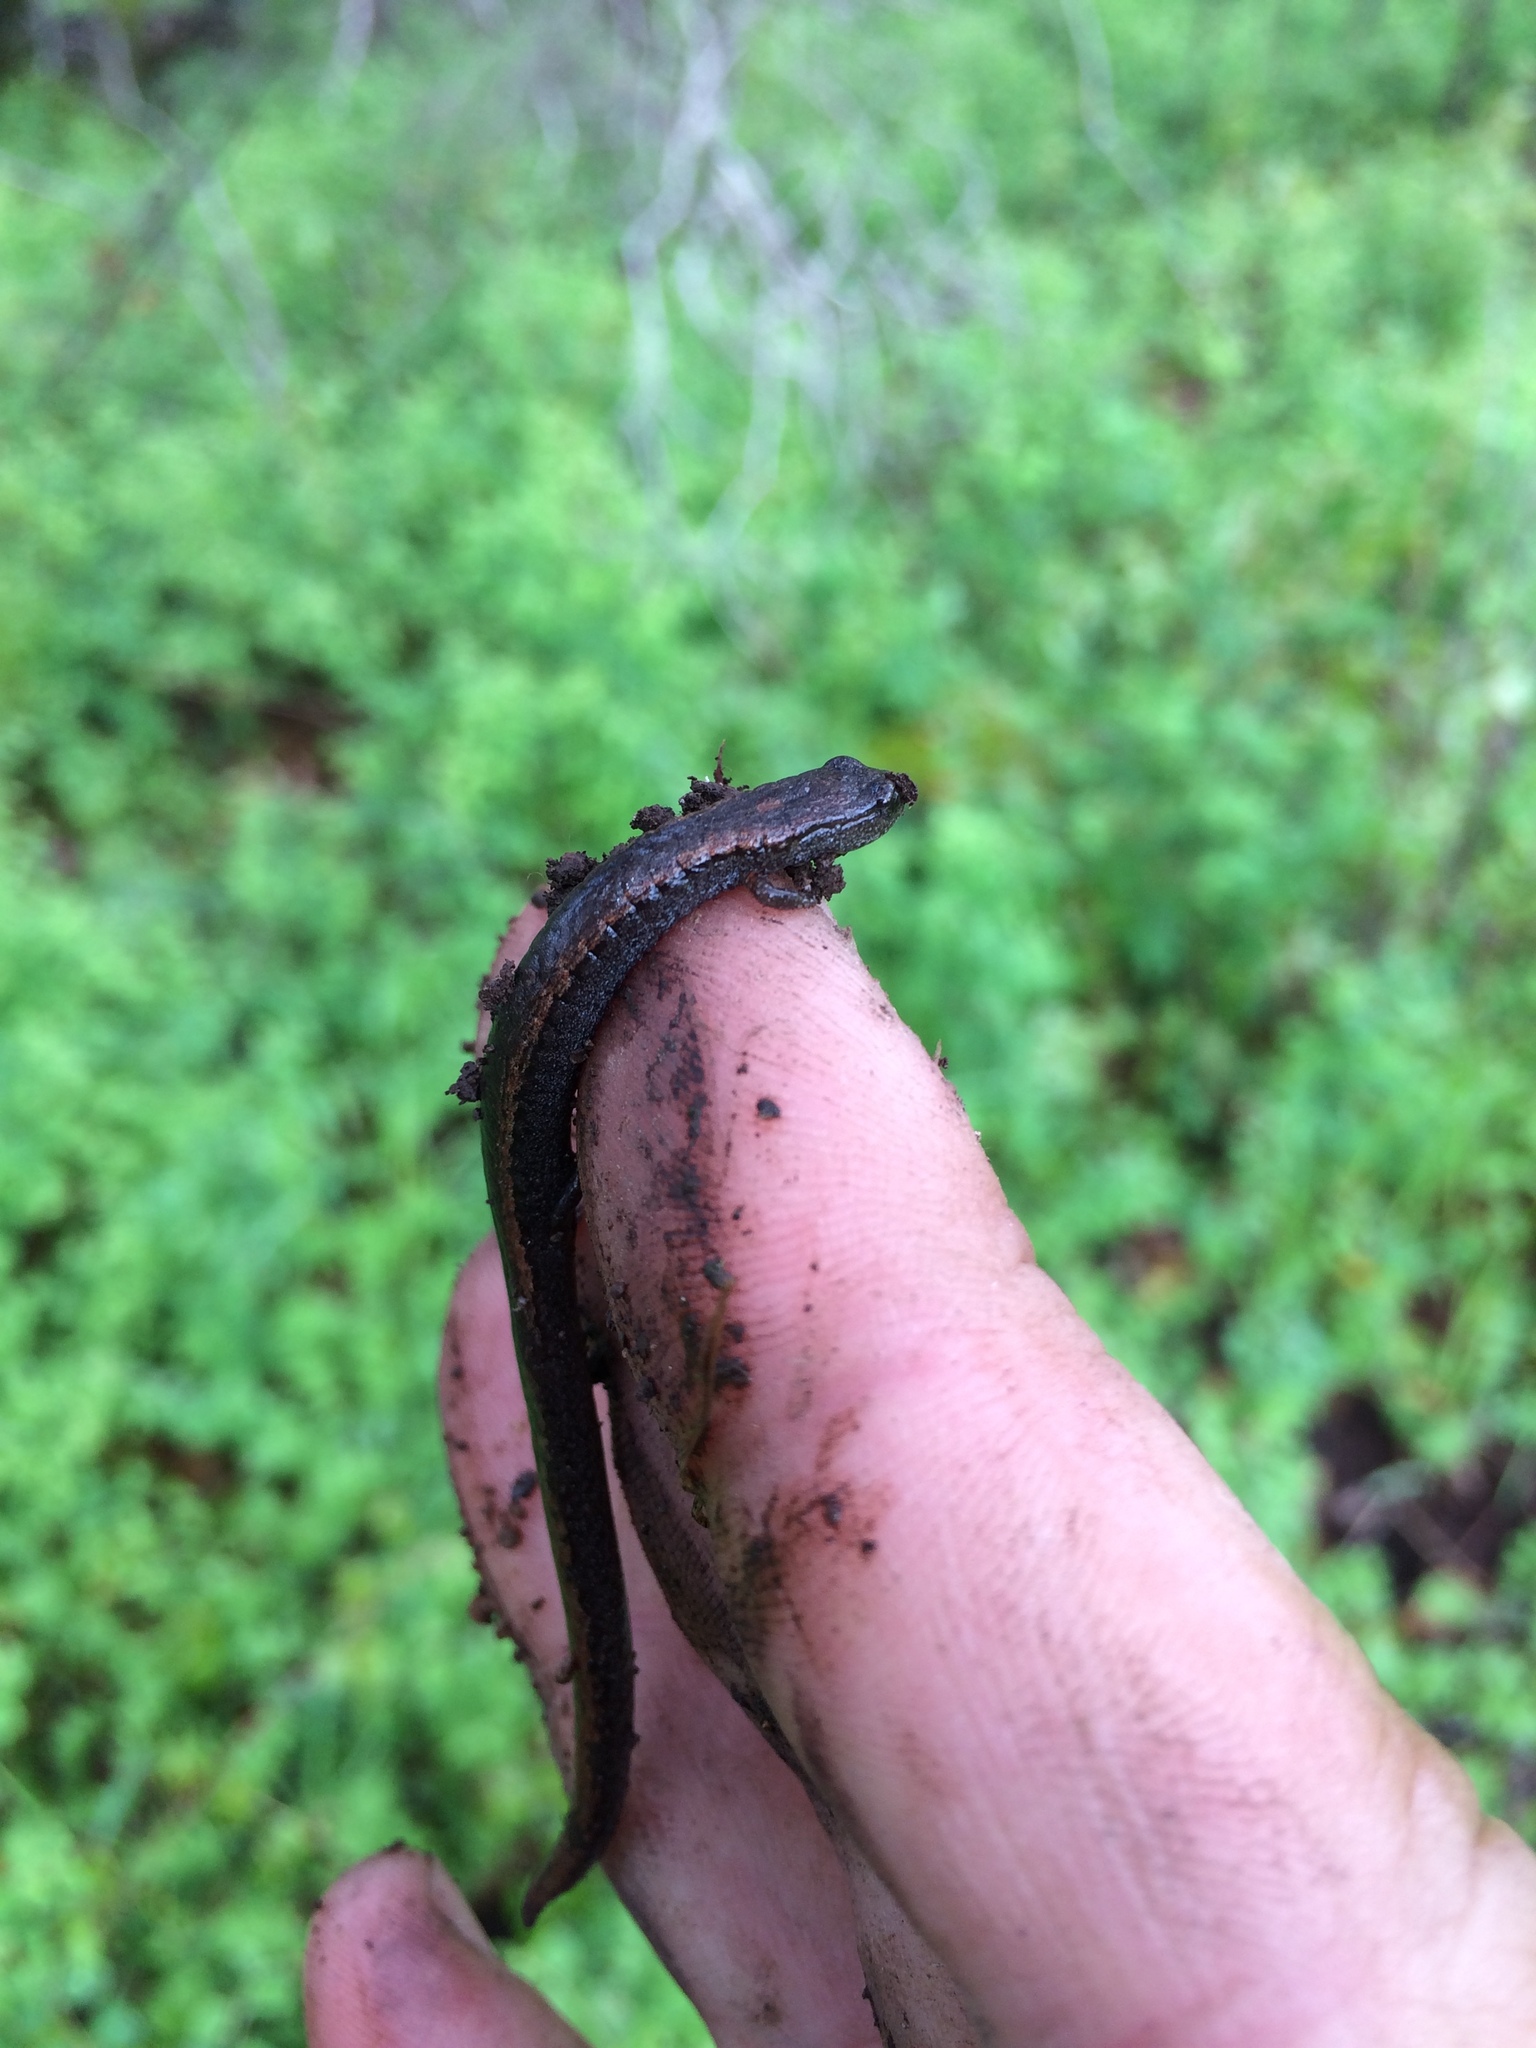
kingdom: Animalia
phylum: Chordata
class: Amphibia
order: Caudata
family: Plethodontidae
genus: Batrachoseps
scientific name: Batrachoseps attenuatus
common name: California slender salamander
